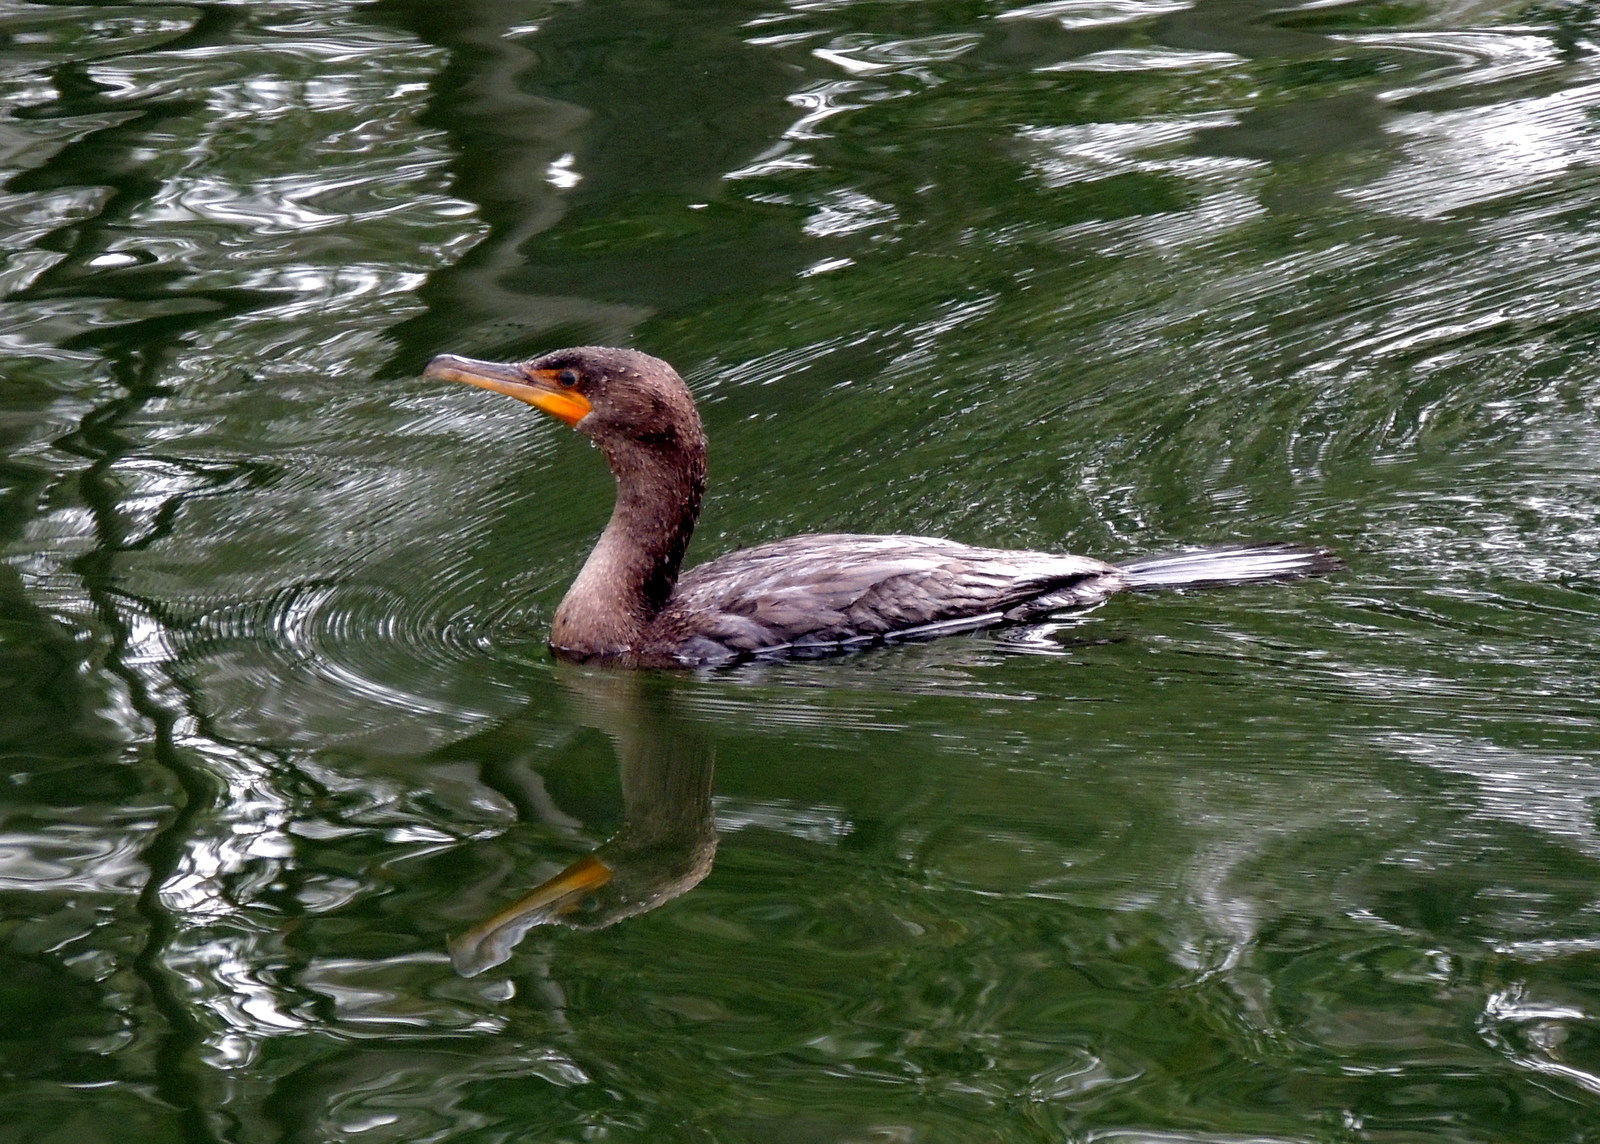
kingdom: Animalia
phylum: Chordata
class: Aves
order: Suliformes
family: Phalacrocoracidae
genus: Phalacrocorax
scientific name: Phalacrocorax auritus
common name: Double-crested cormorant
